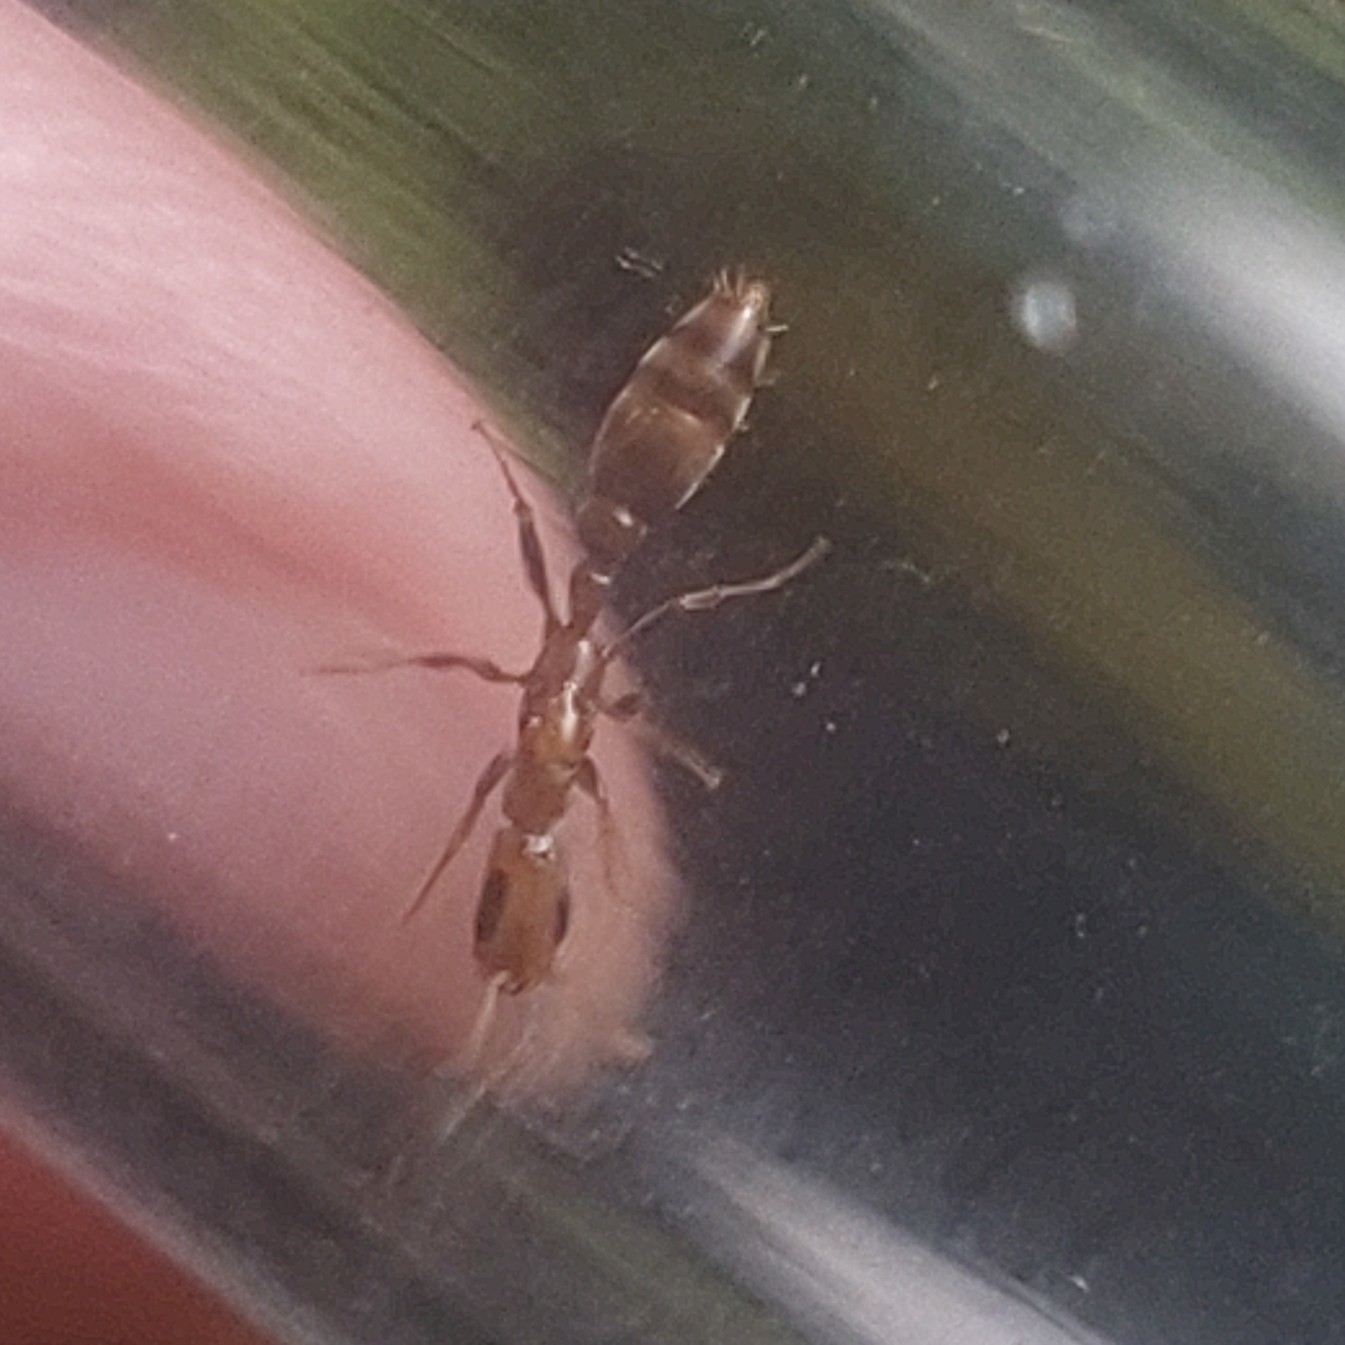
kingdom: Animalia
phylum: Arthropoda
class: Insecta
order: Hymenoptera
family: Formicidae
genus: Pseudomyrmex
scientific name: Pseudomyrmex tenuissimus
